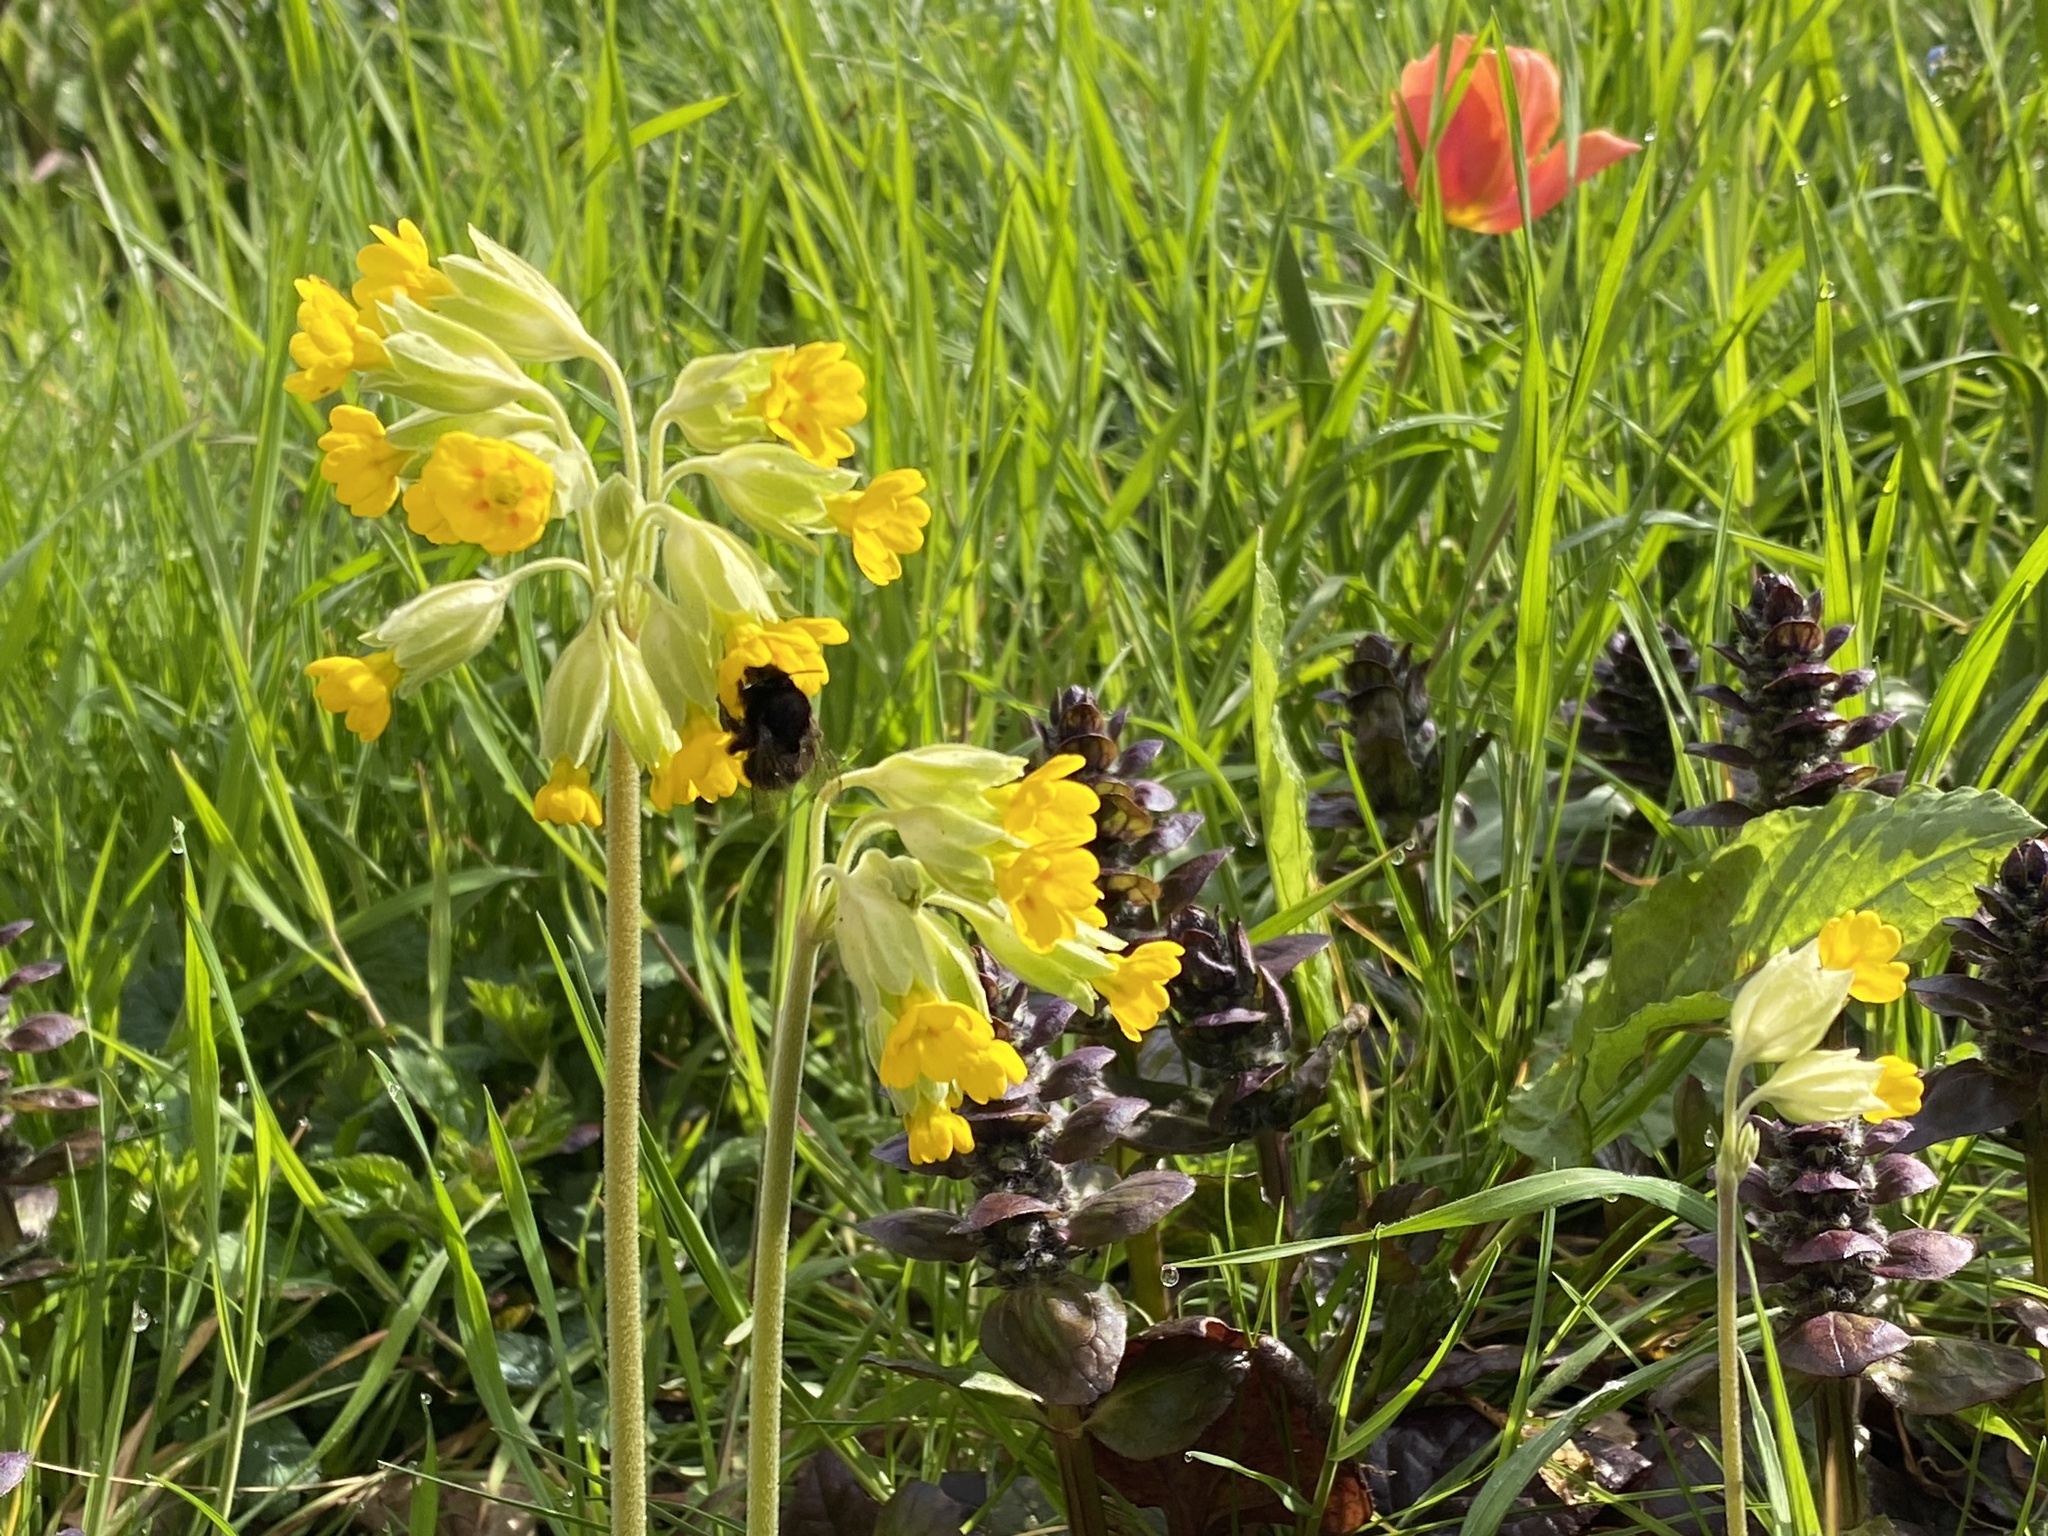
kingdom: Animalia
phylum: Arthropoda
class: Insecta
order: Hymenoptera
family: Apidae
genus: Anthophora
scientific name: Anthophora plumipes
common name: Hairy-footed flower bee
